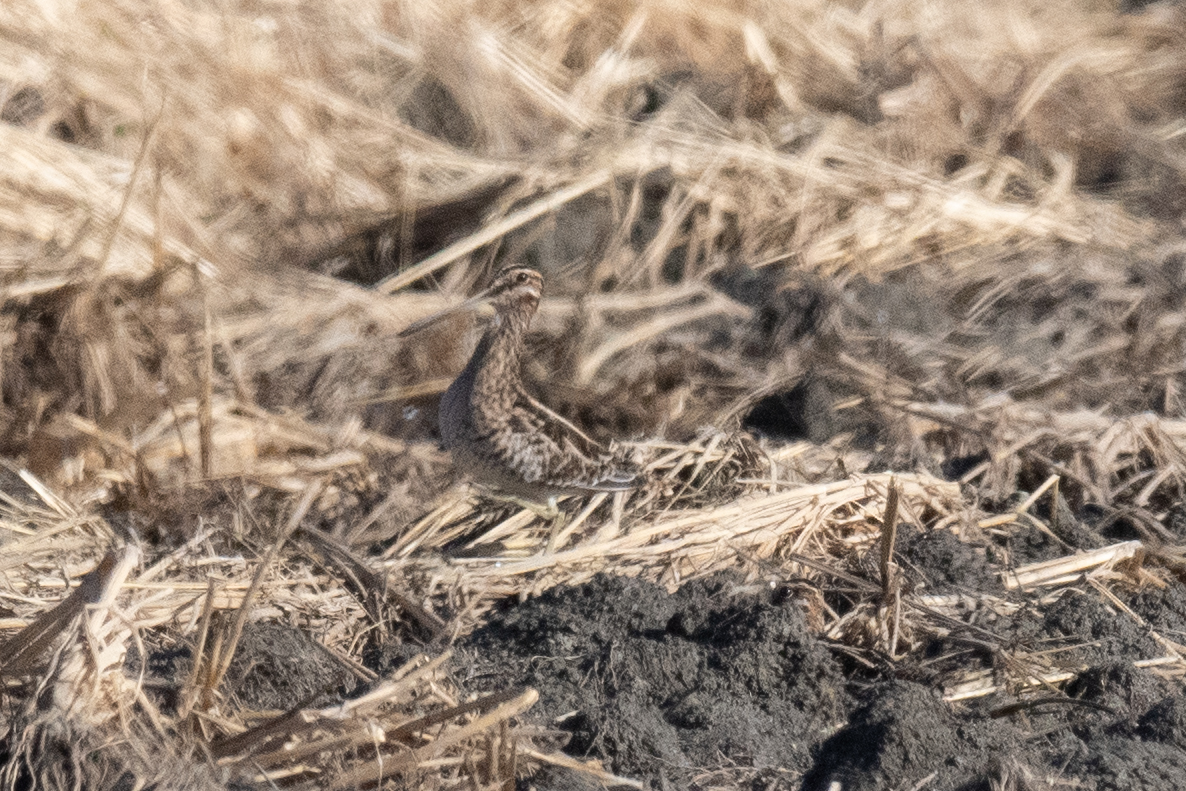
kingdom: Animalia
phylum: Chordata
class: Aves
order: Charadriiformes
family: Scolopacidae
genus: Gallinago
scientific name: Gallinago delicata
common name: Wilson's snipe
